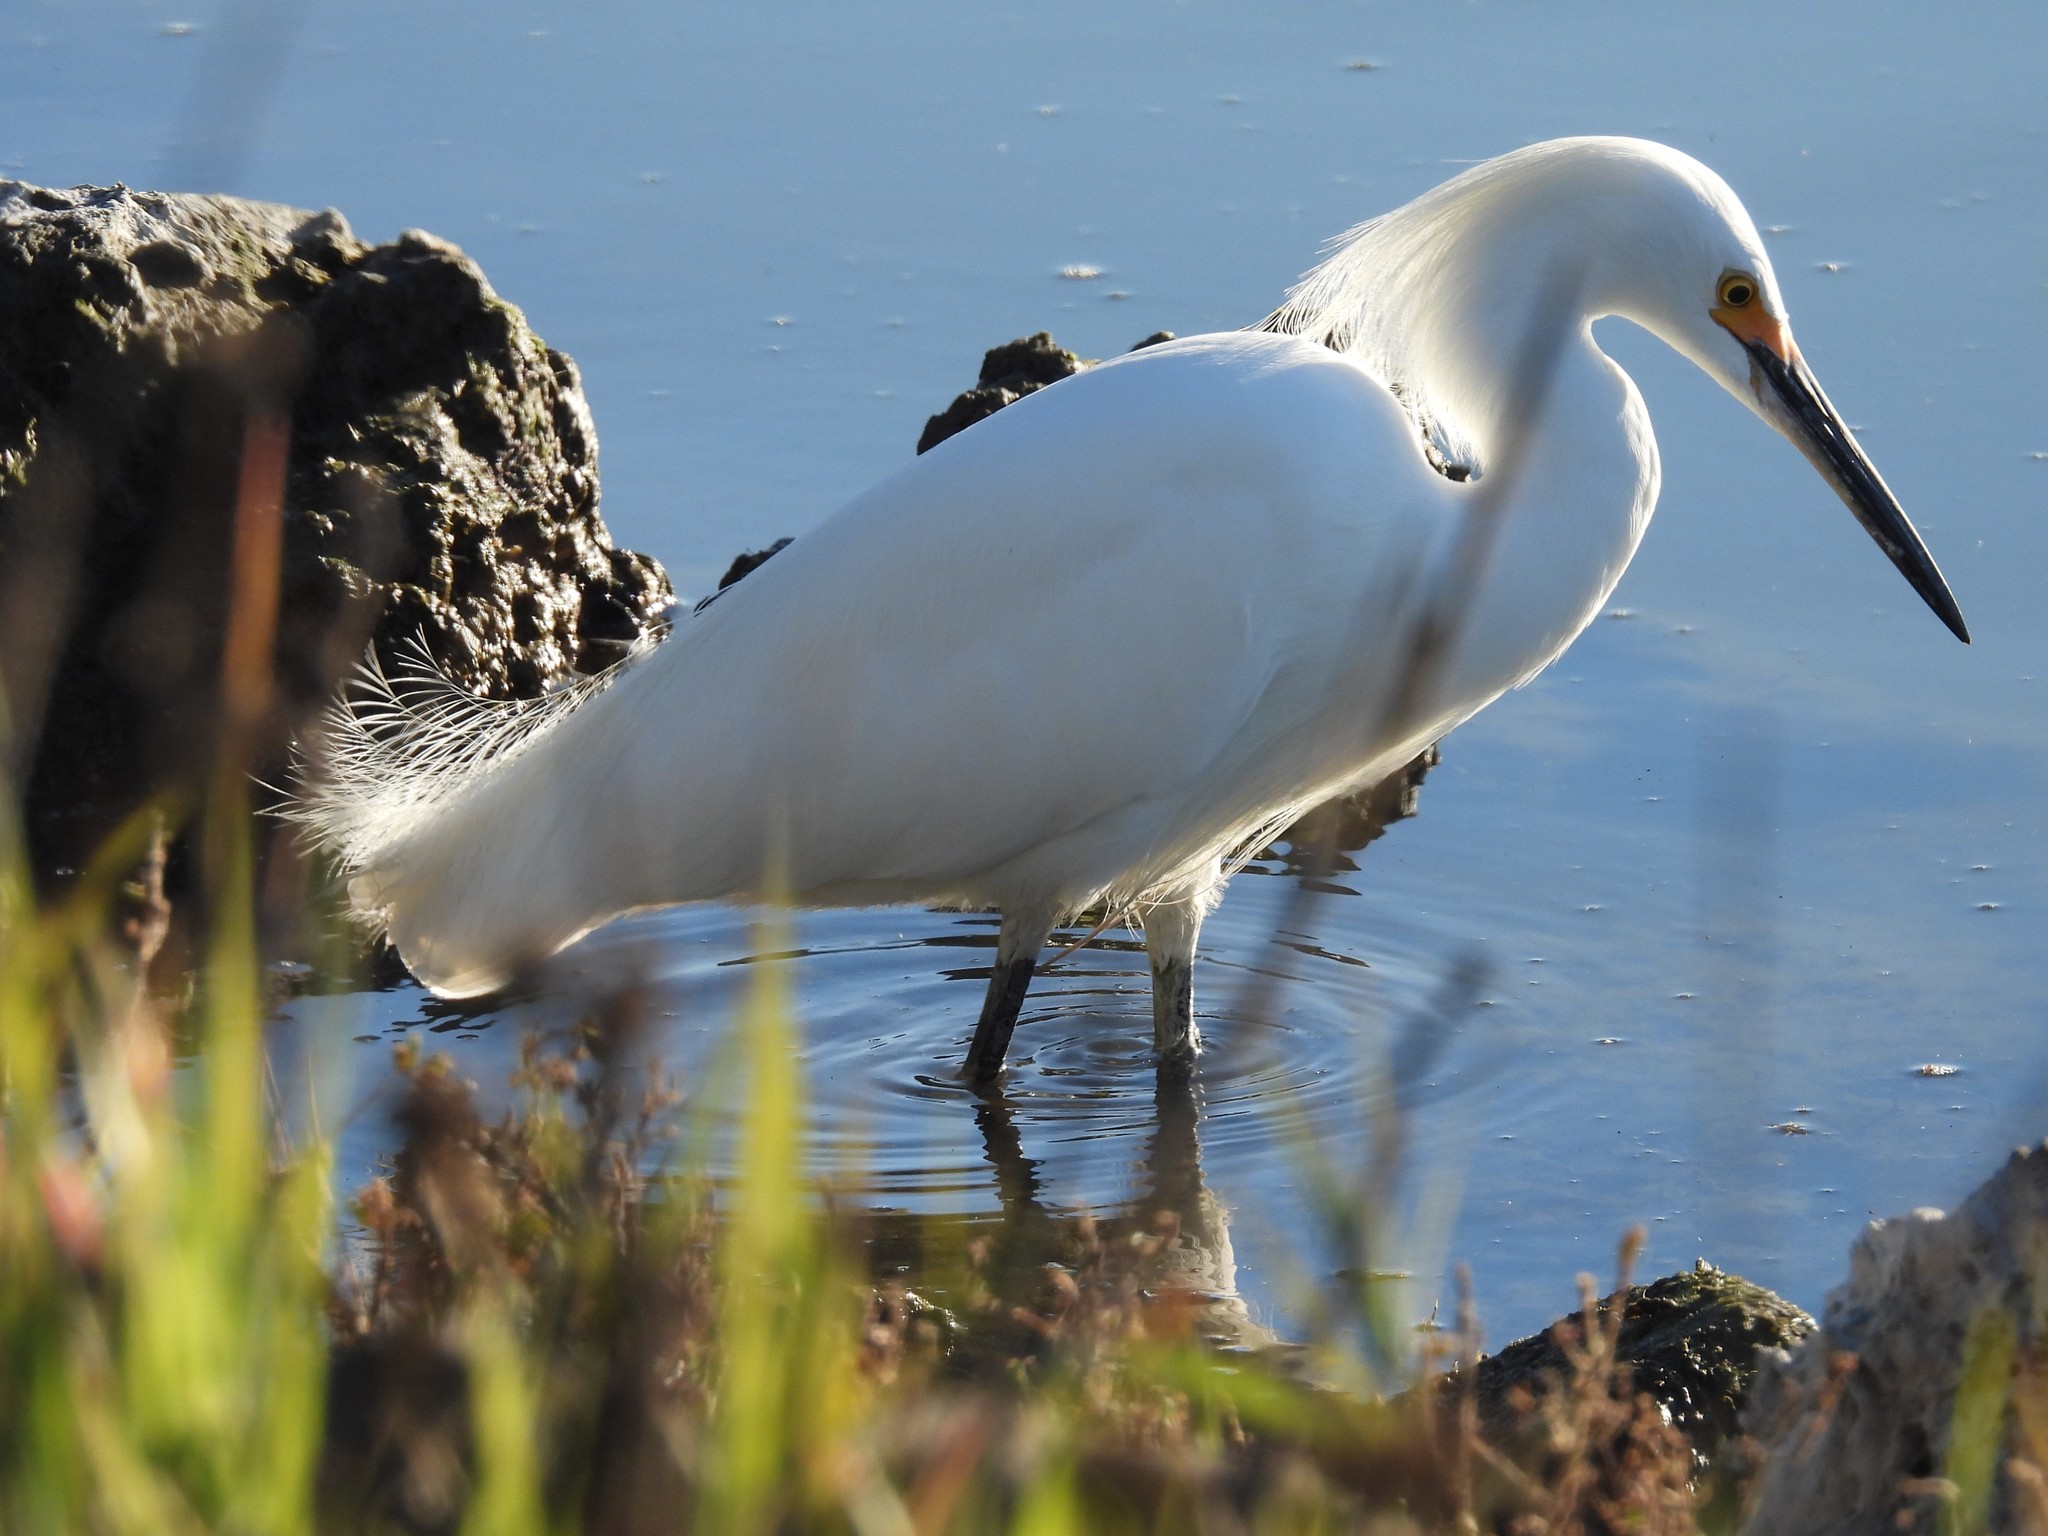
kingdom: Animalia
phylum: Chordata
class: Aves
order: Pelecaniformes
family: Ardeidae
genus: Egretta
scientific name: Egretta thula
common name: Snowy egret
